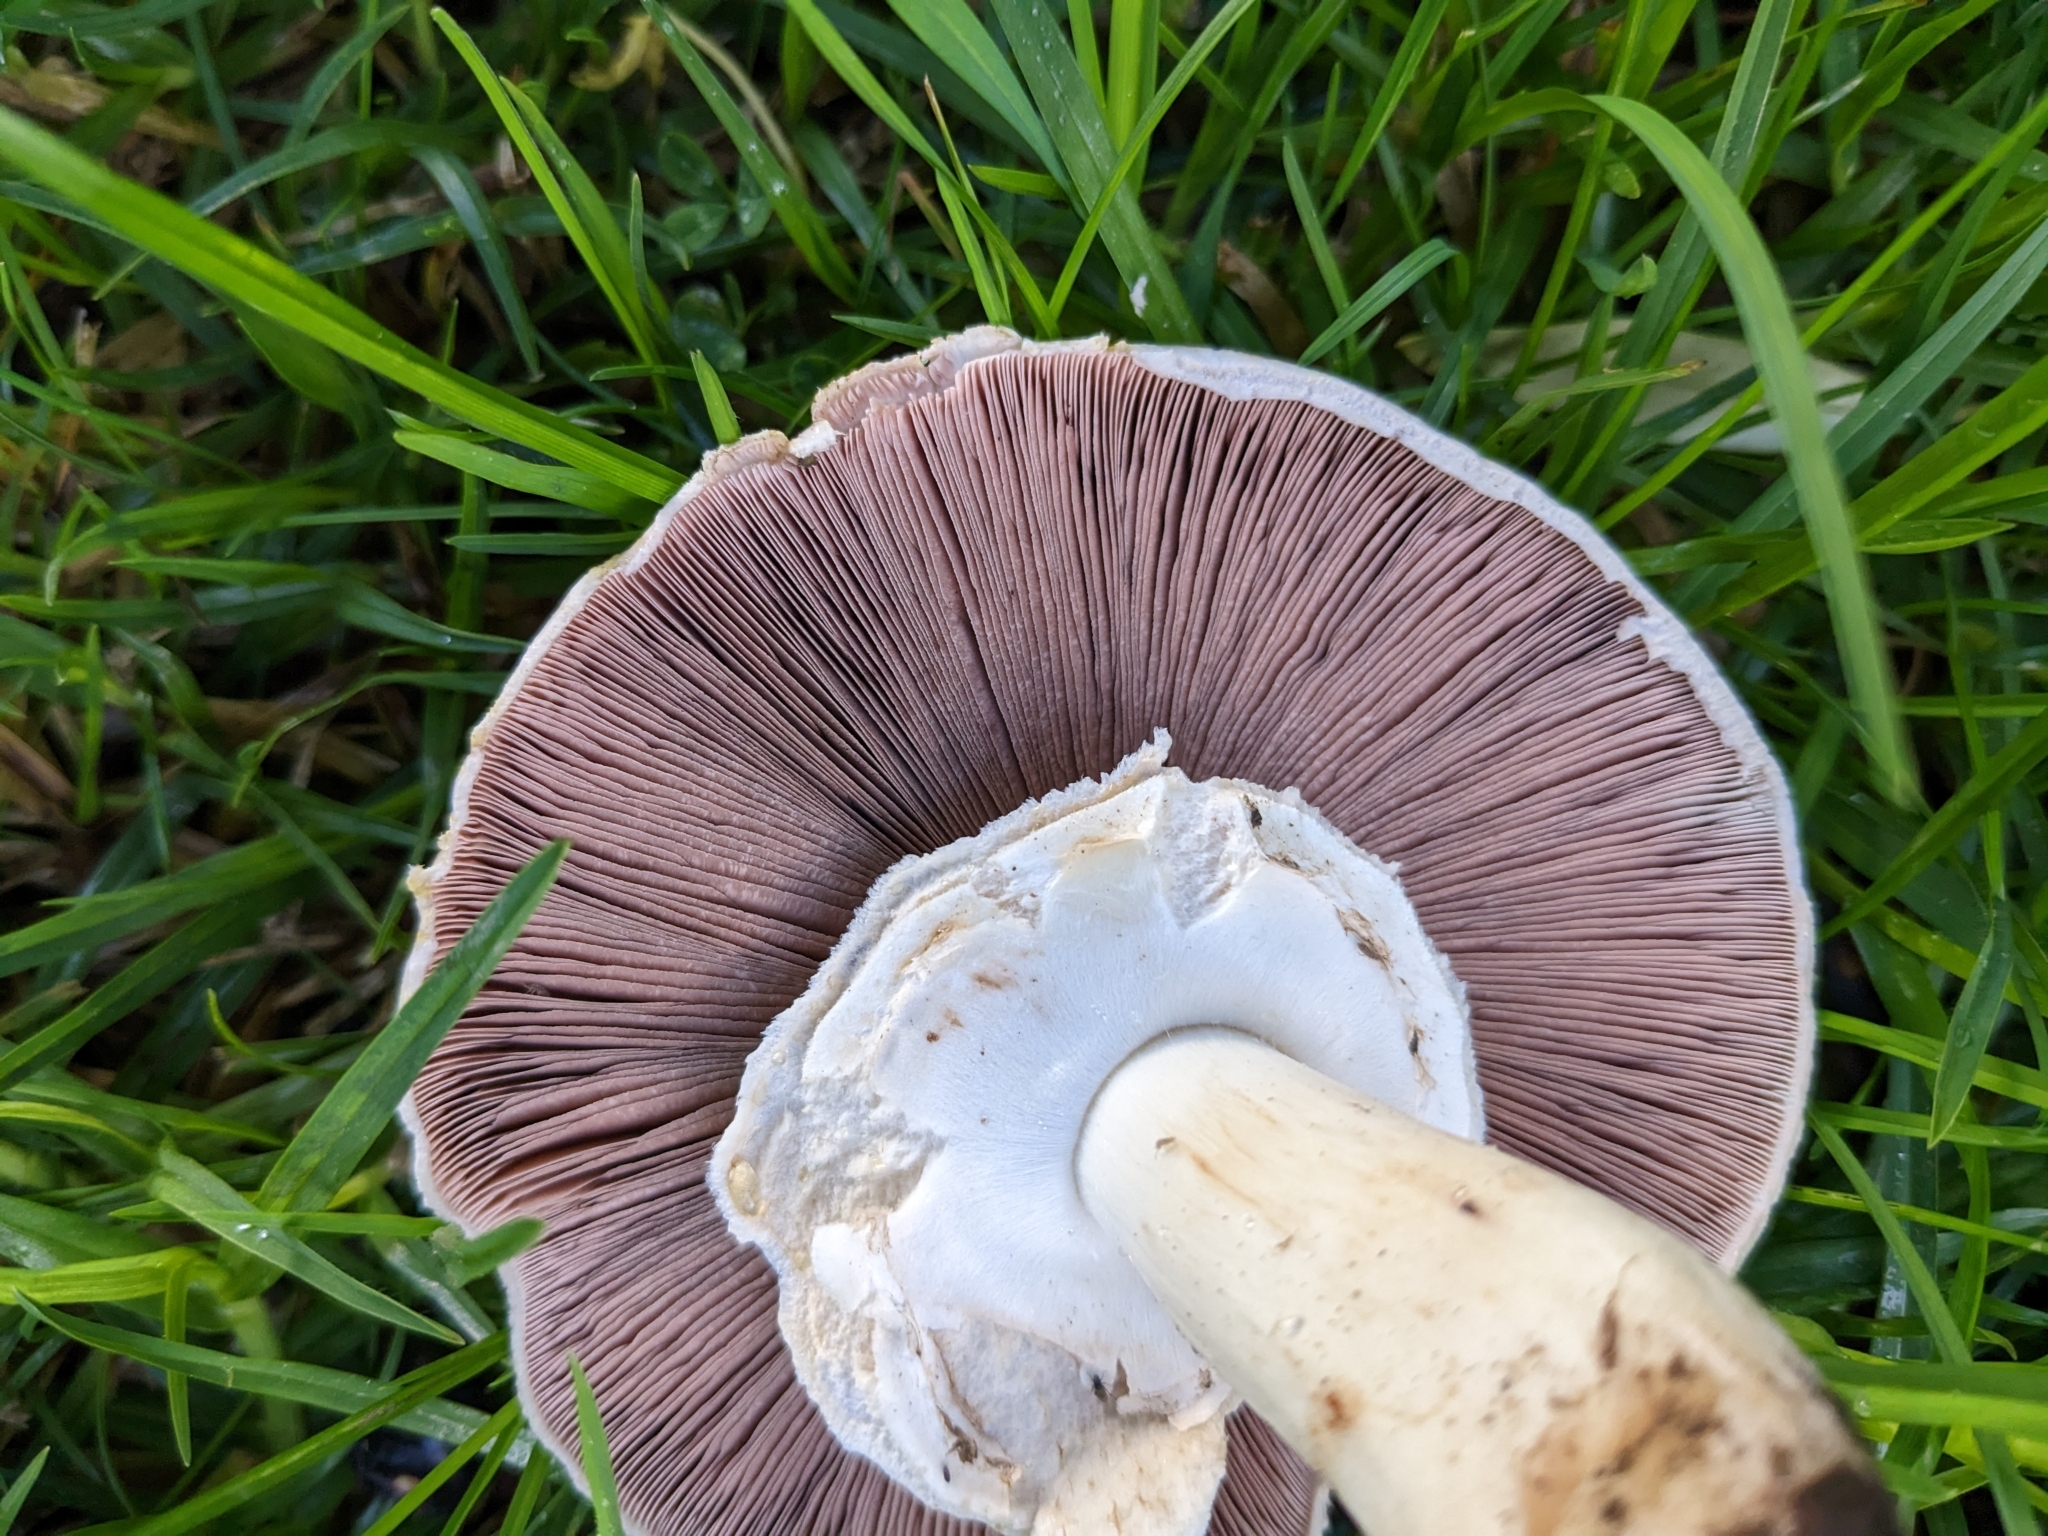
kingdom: Fungi
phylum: Basidiomycota
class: Agaricomycetes
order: Agaricales
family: Agaricaceae
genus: Agaricus
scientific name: Agaricus xanthodermus
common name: Yellow stainer
